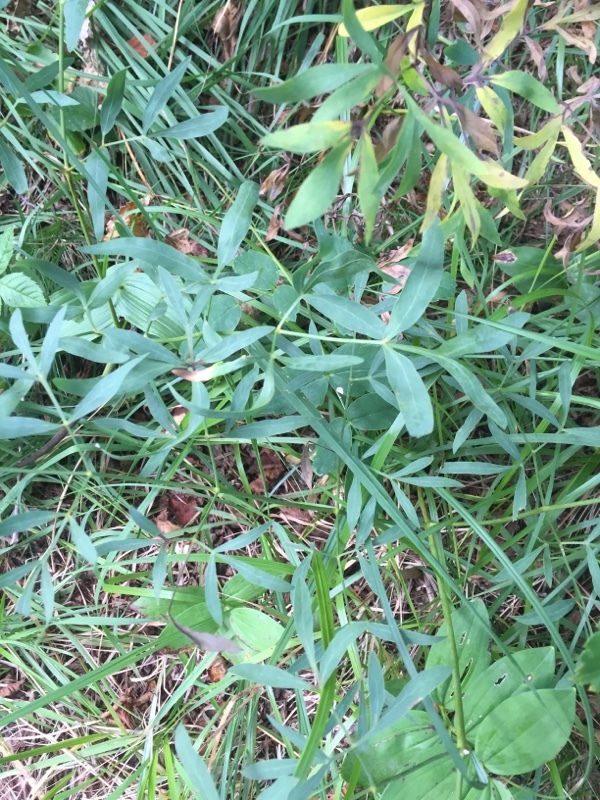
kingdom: Plantae
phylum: Tracheophyta
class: Magnoliopsida
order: Apiales
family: Apiaceae
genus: Siler
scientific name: Siler montanum
